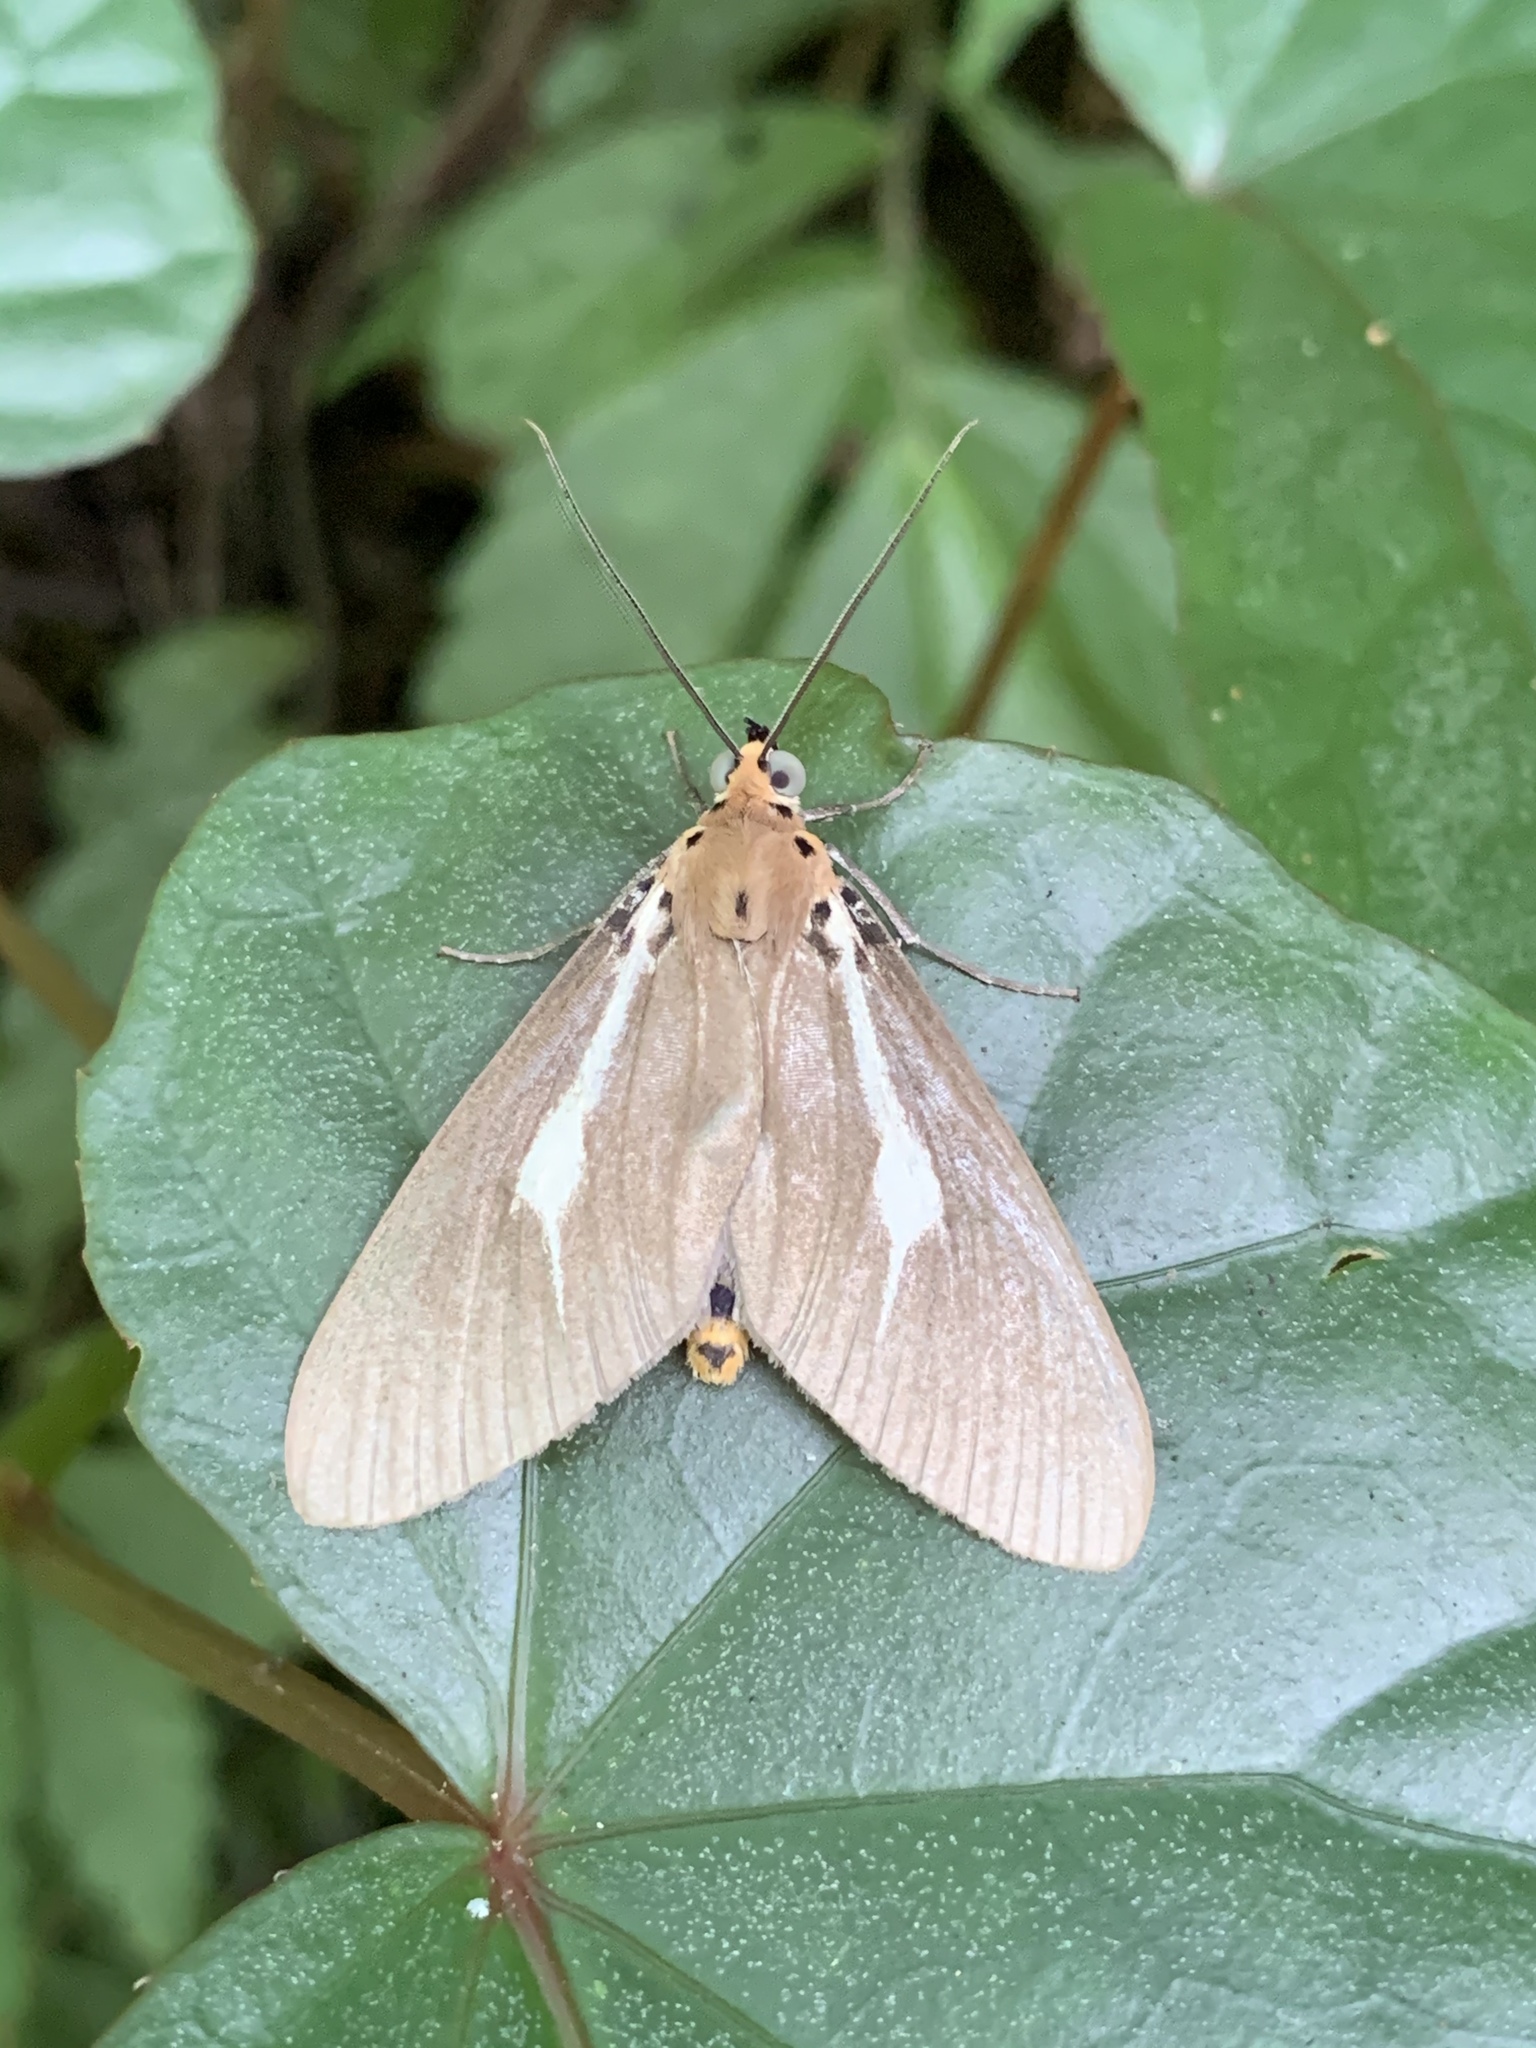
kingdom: Animalia
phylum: Arthropoda
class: Insecta
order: Lepidoptera
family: Erebidae
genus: Asota
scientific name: Asota heliconia
